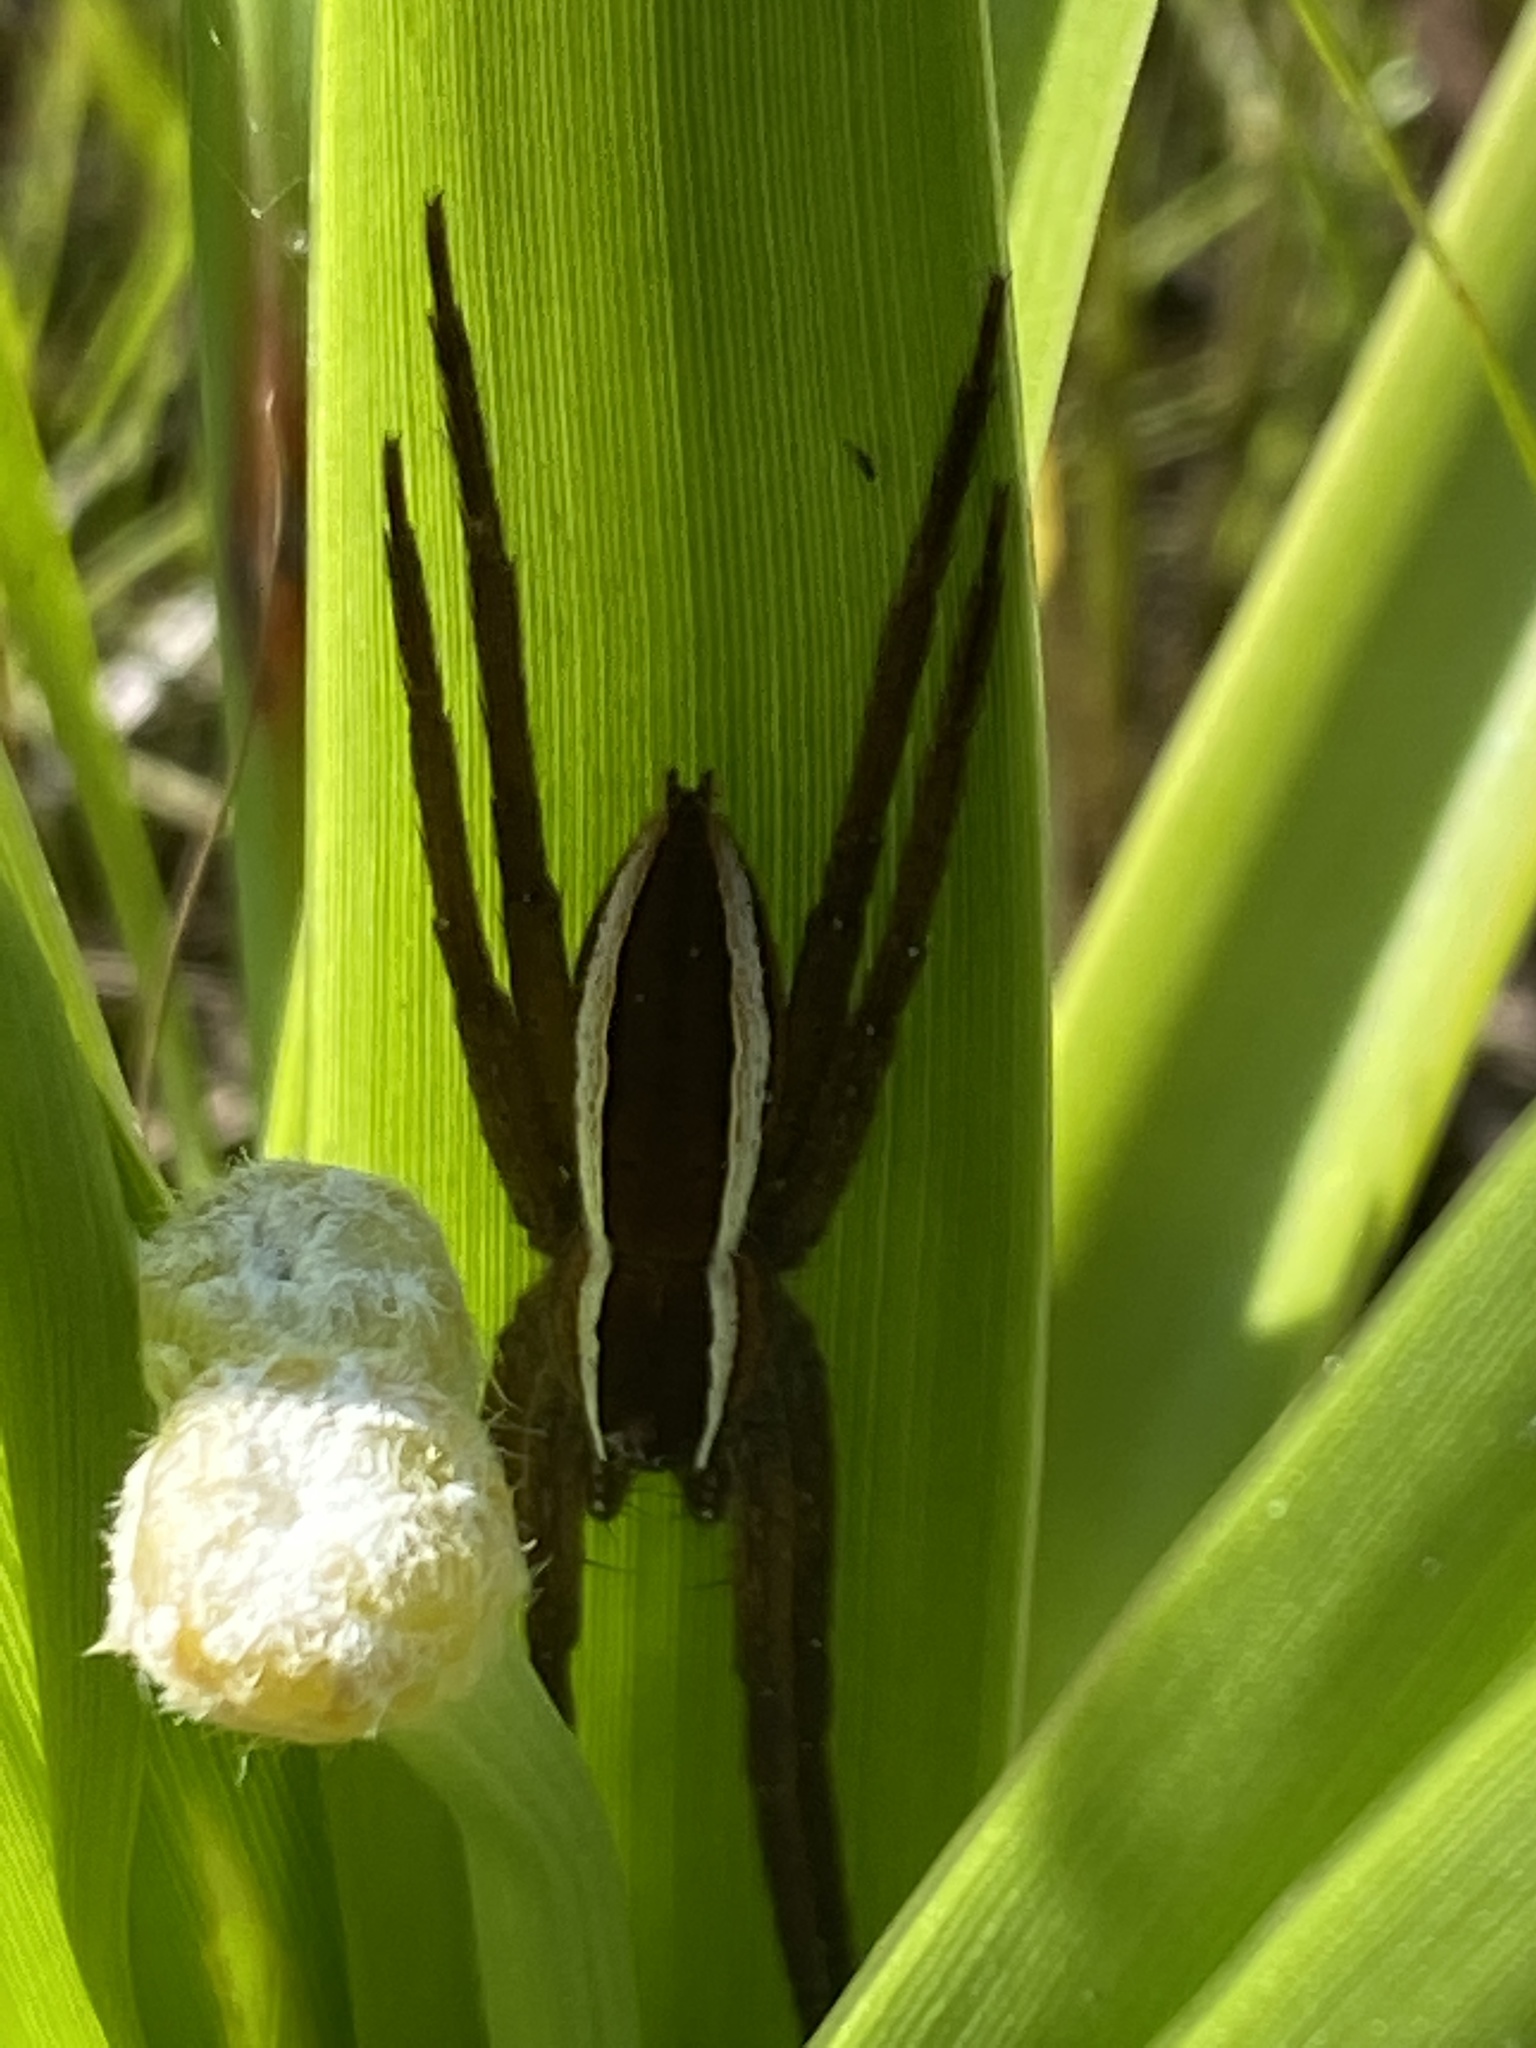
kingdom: Animalia
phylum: Arthropoda
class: Arachnida
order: Araneae
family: Pisauridae
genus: Pisaurina
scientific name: Pisaurina brevipes
